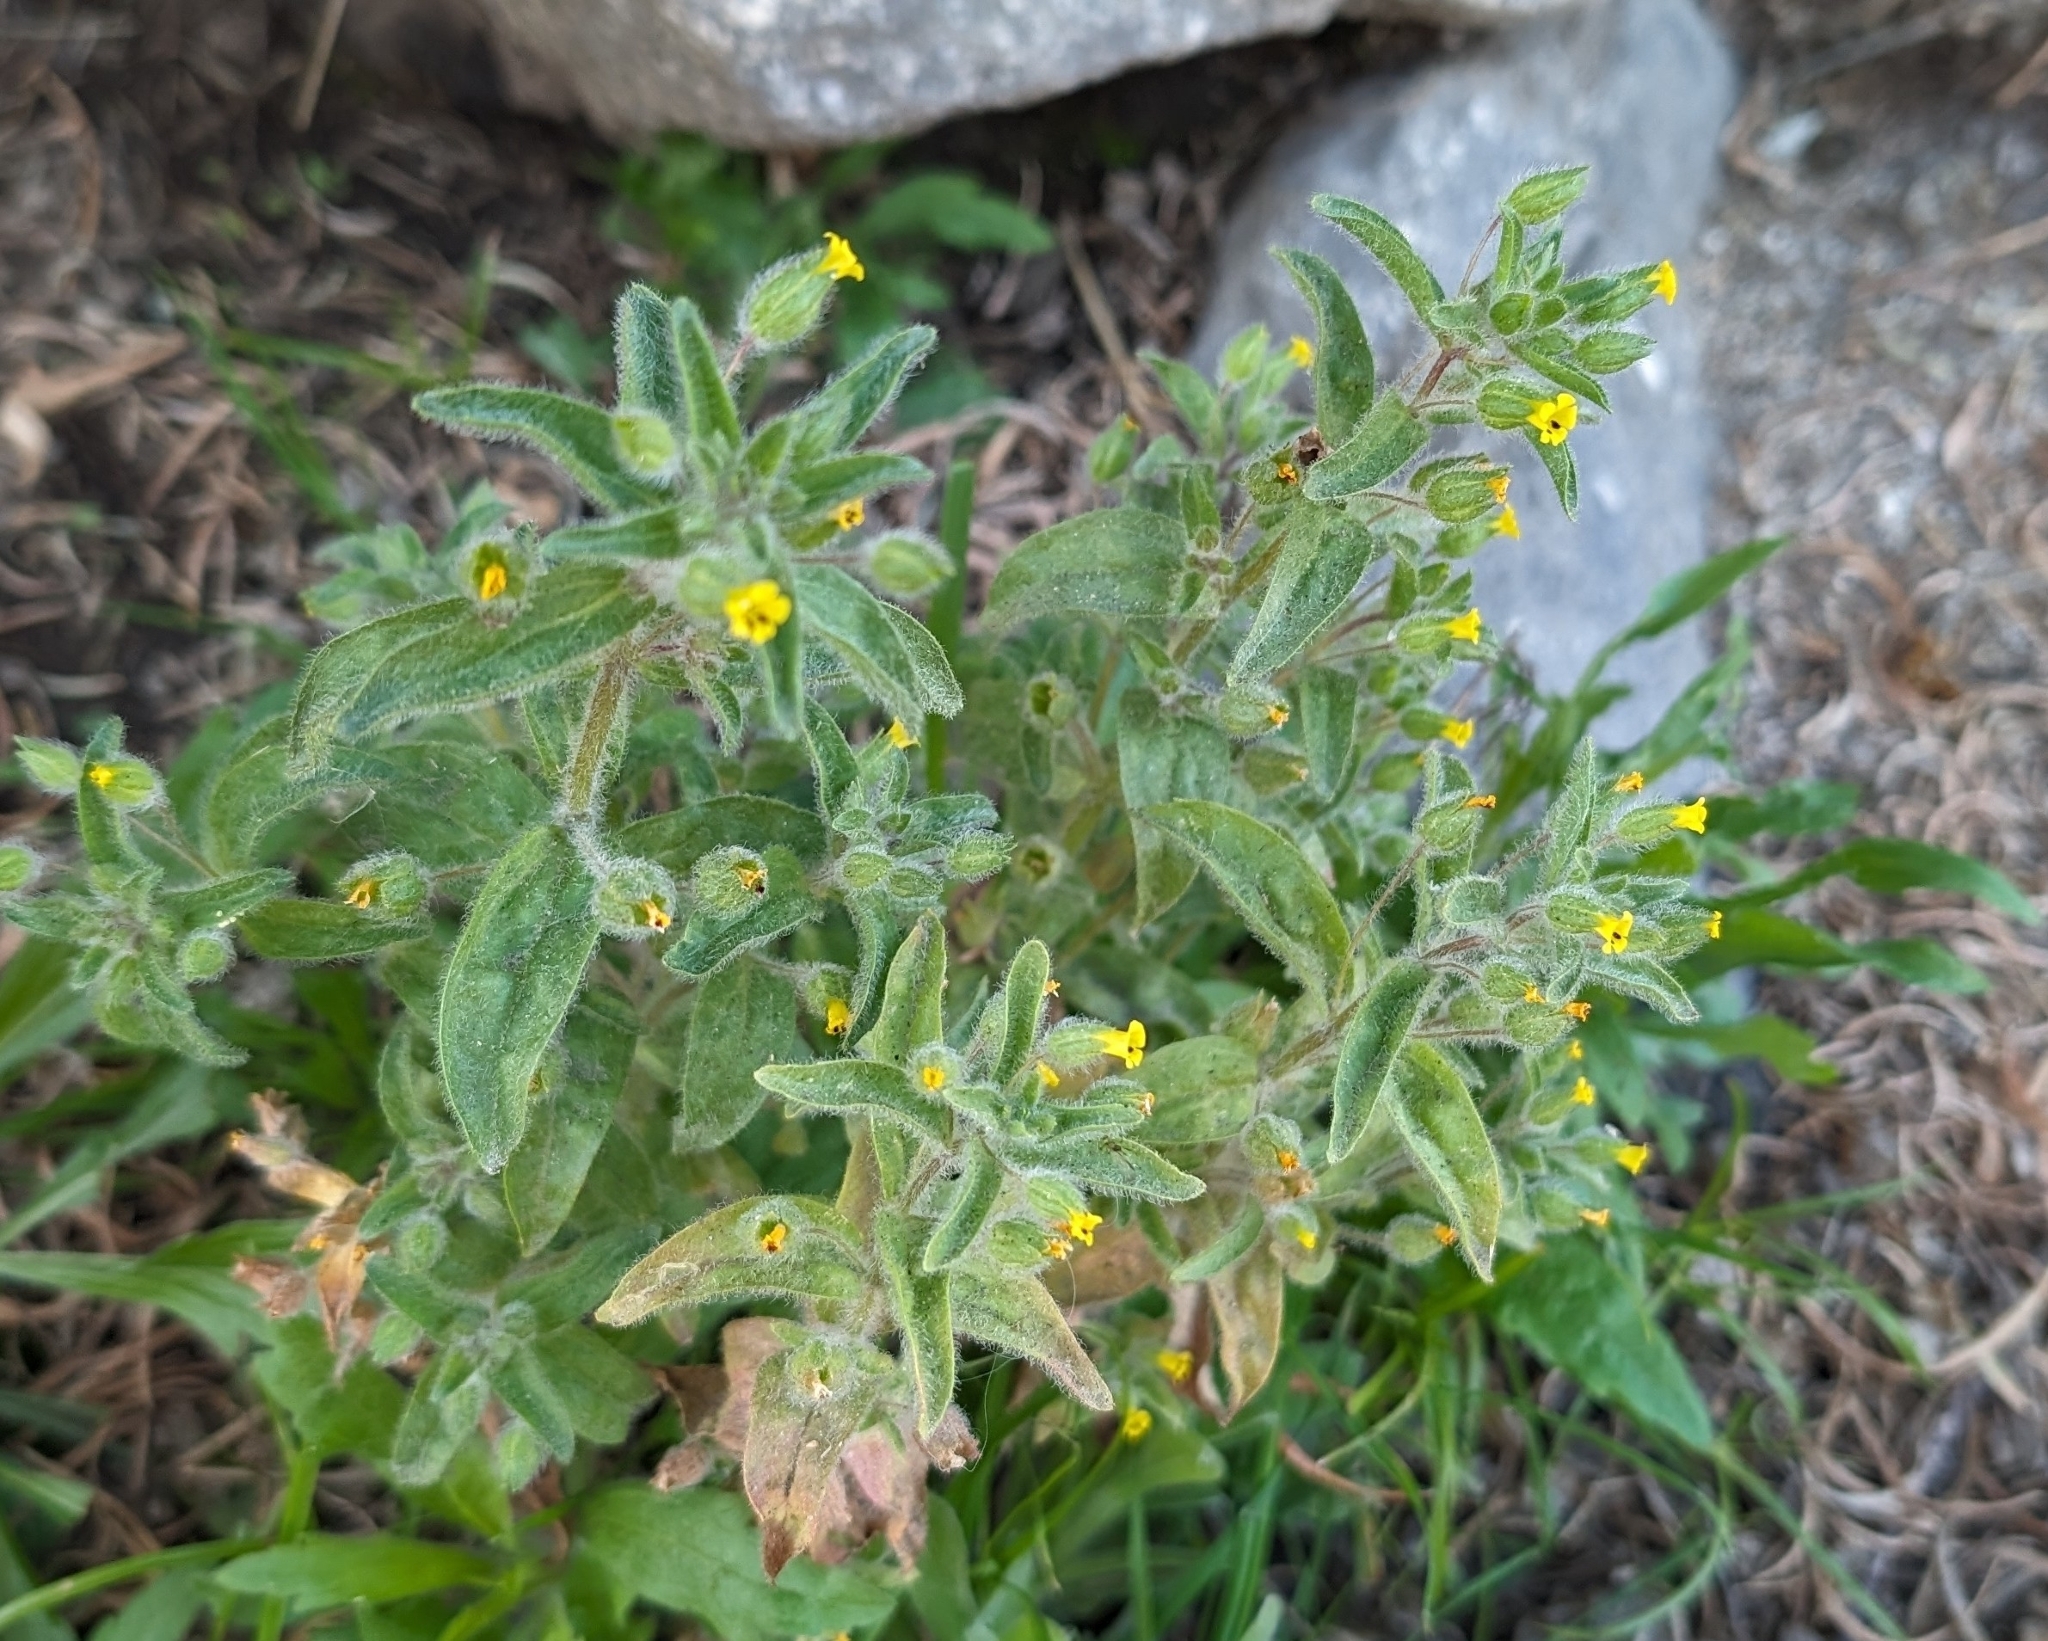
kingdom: Plantae
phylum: Tracheophyta
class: Magnoliopsida
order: Lamiales
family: Phrymaceae
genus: Mimetanthe
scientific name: Mimetanthe pilosa
